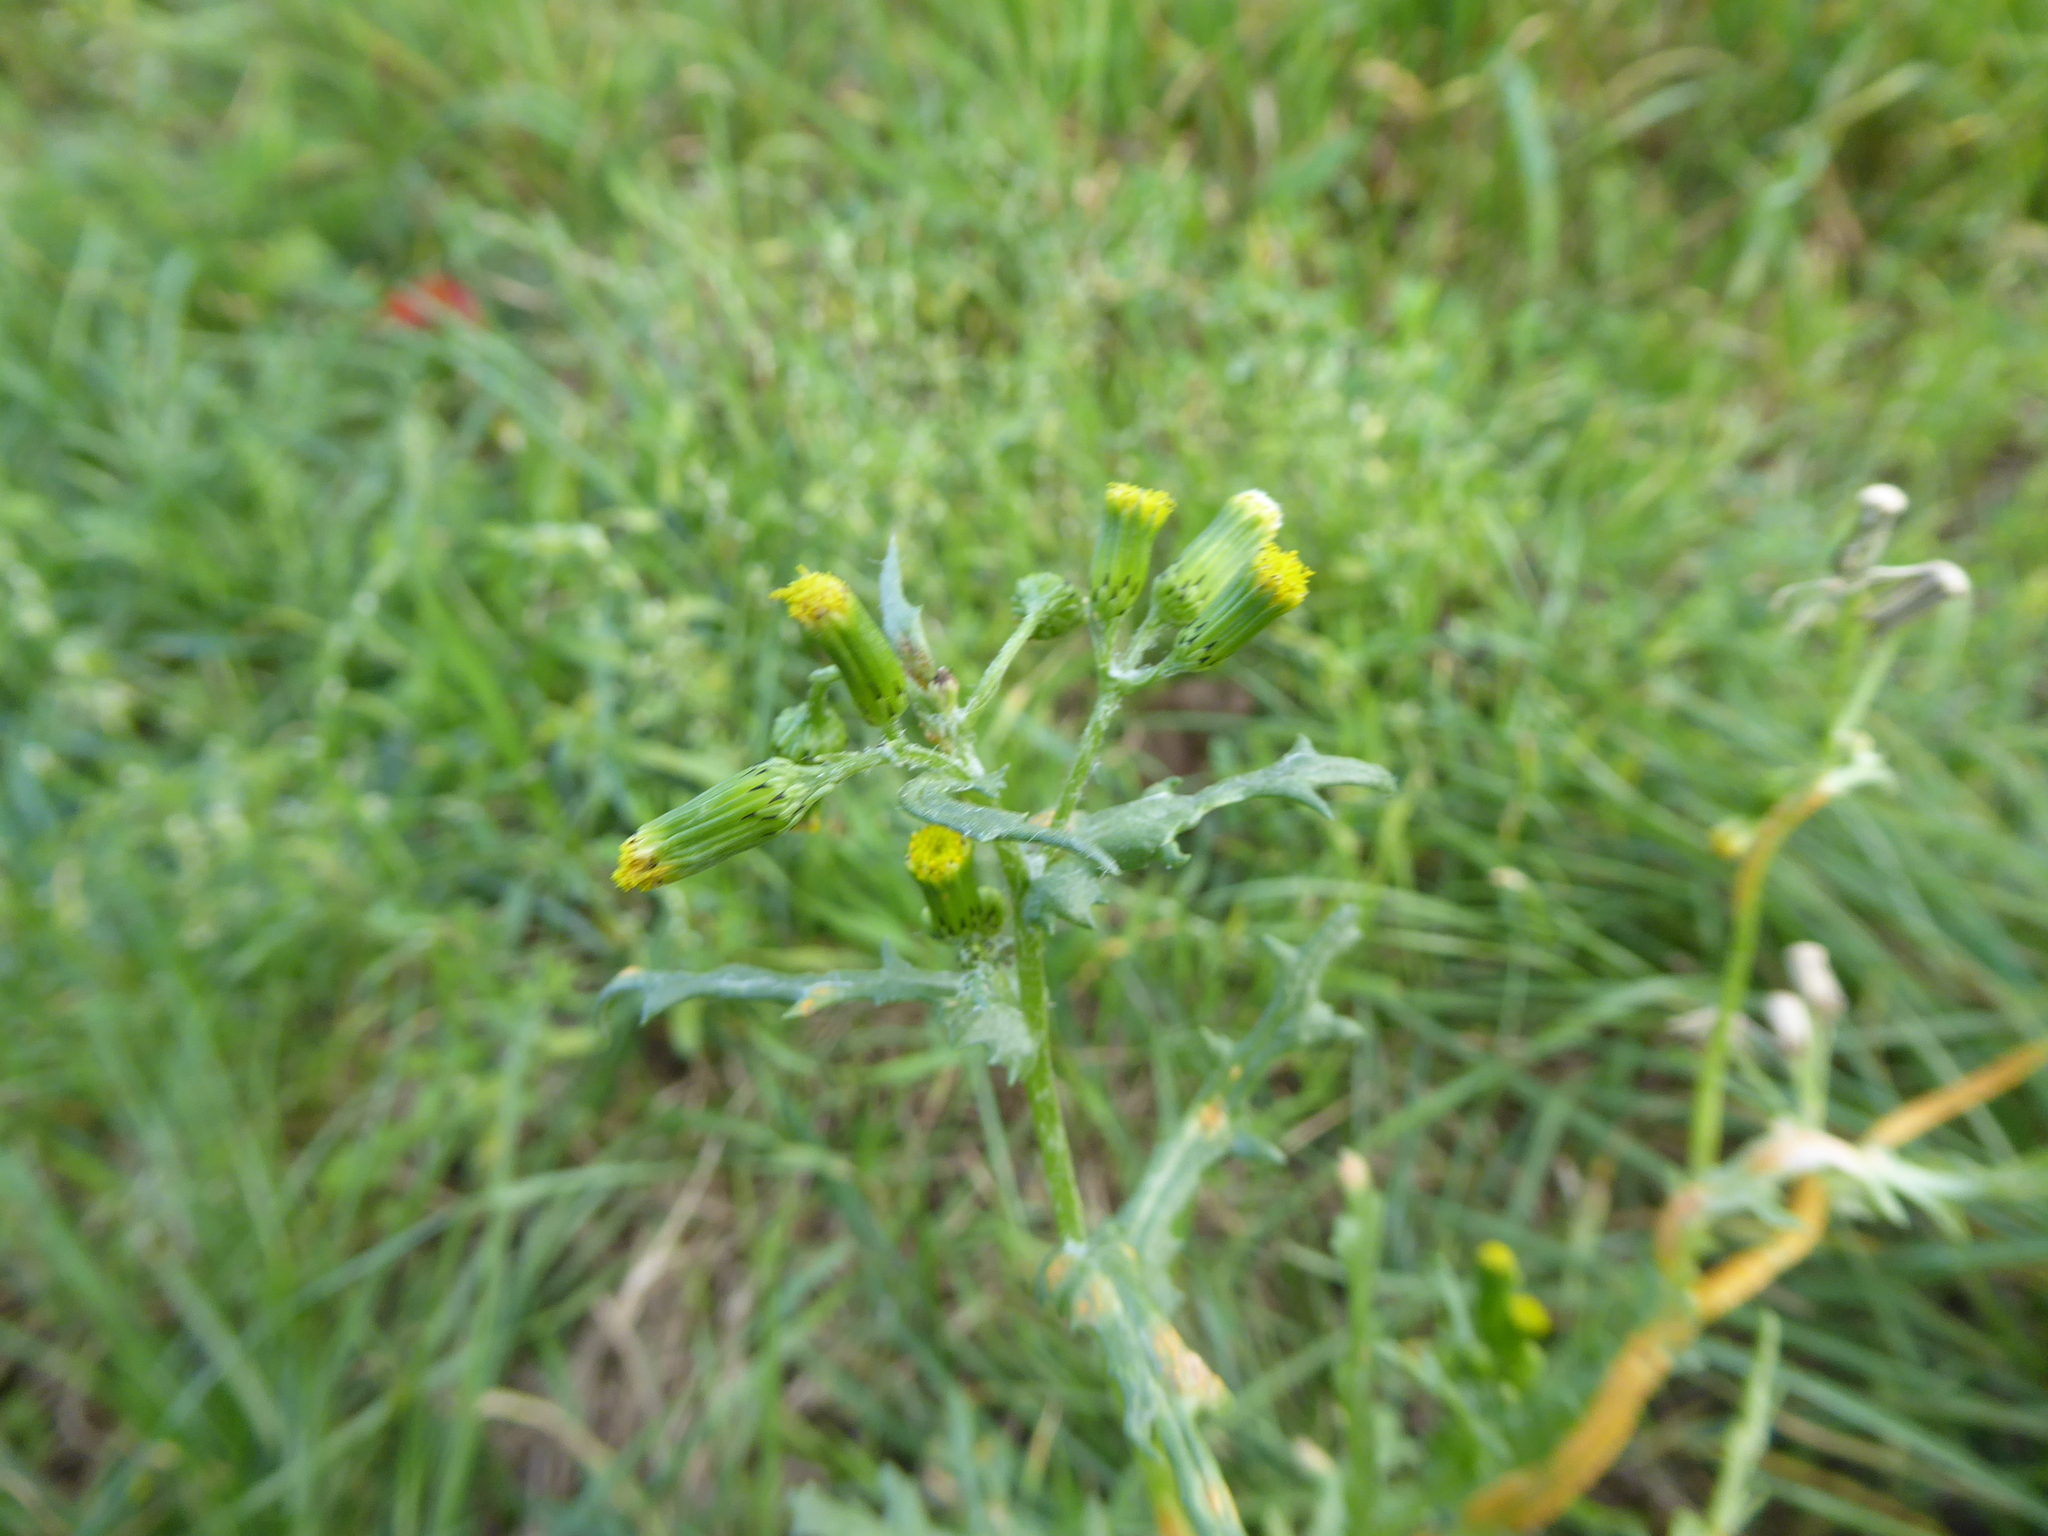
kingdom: Plantae
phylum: Tracheophyta
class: Magnoliopsida
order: Asterales
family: Asteraceae
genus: Senecio
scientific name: Senecio vulgaris
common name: Old-man-in-the-spring
